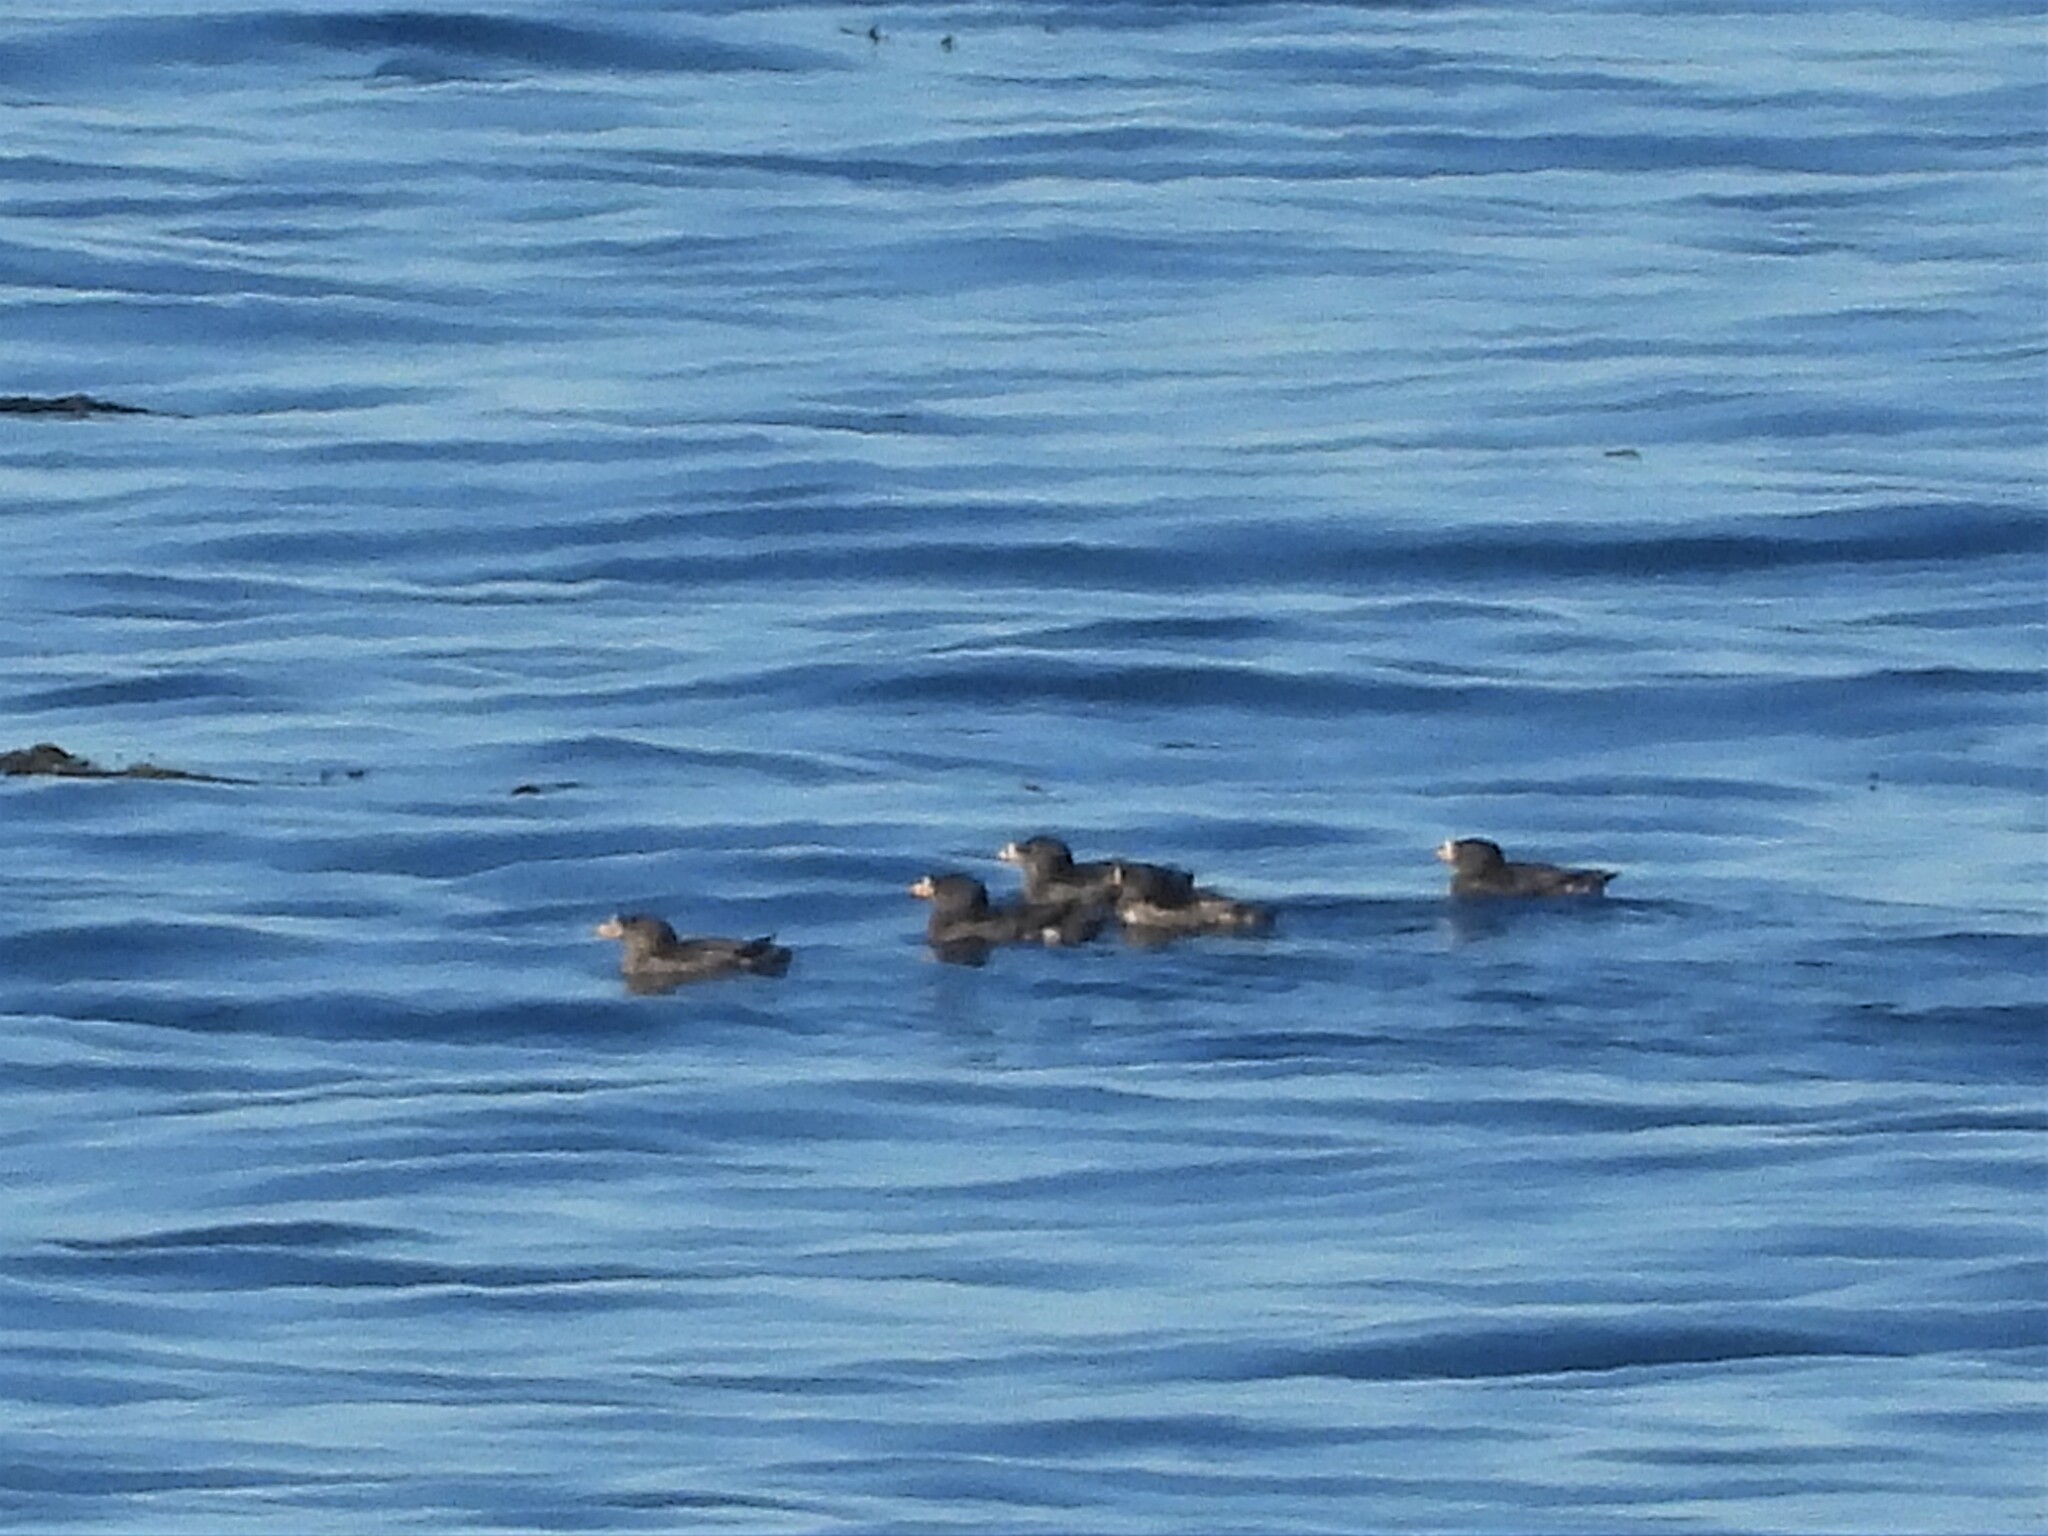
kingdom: Animalia
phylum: Chordata
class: Aves
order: Charadriiformes
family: Alcidae
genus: Cerorhinca
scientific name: Cerorhinca monocerata
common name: Rhinoceros auklet
